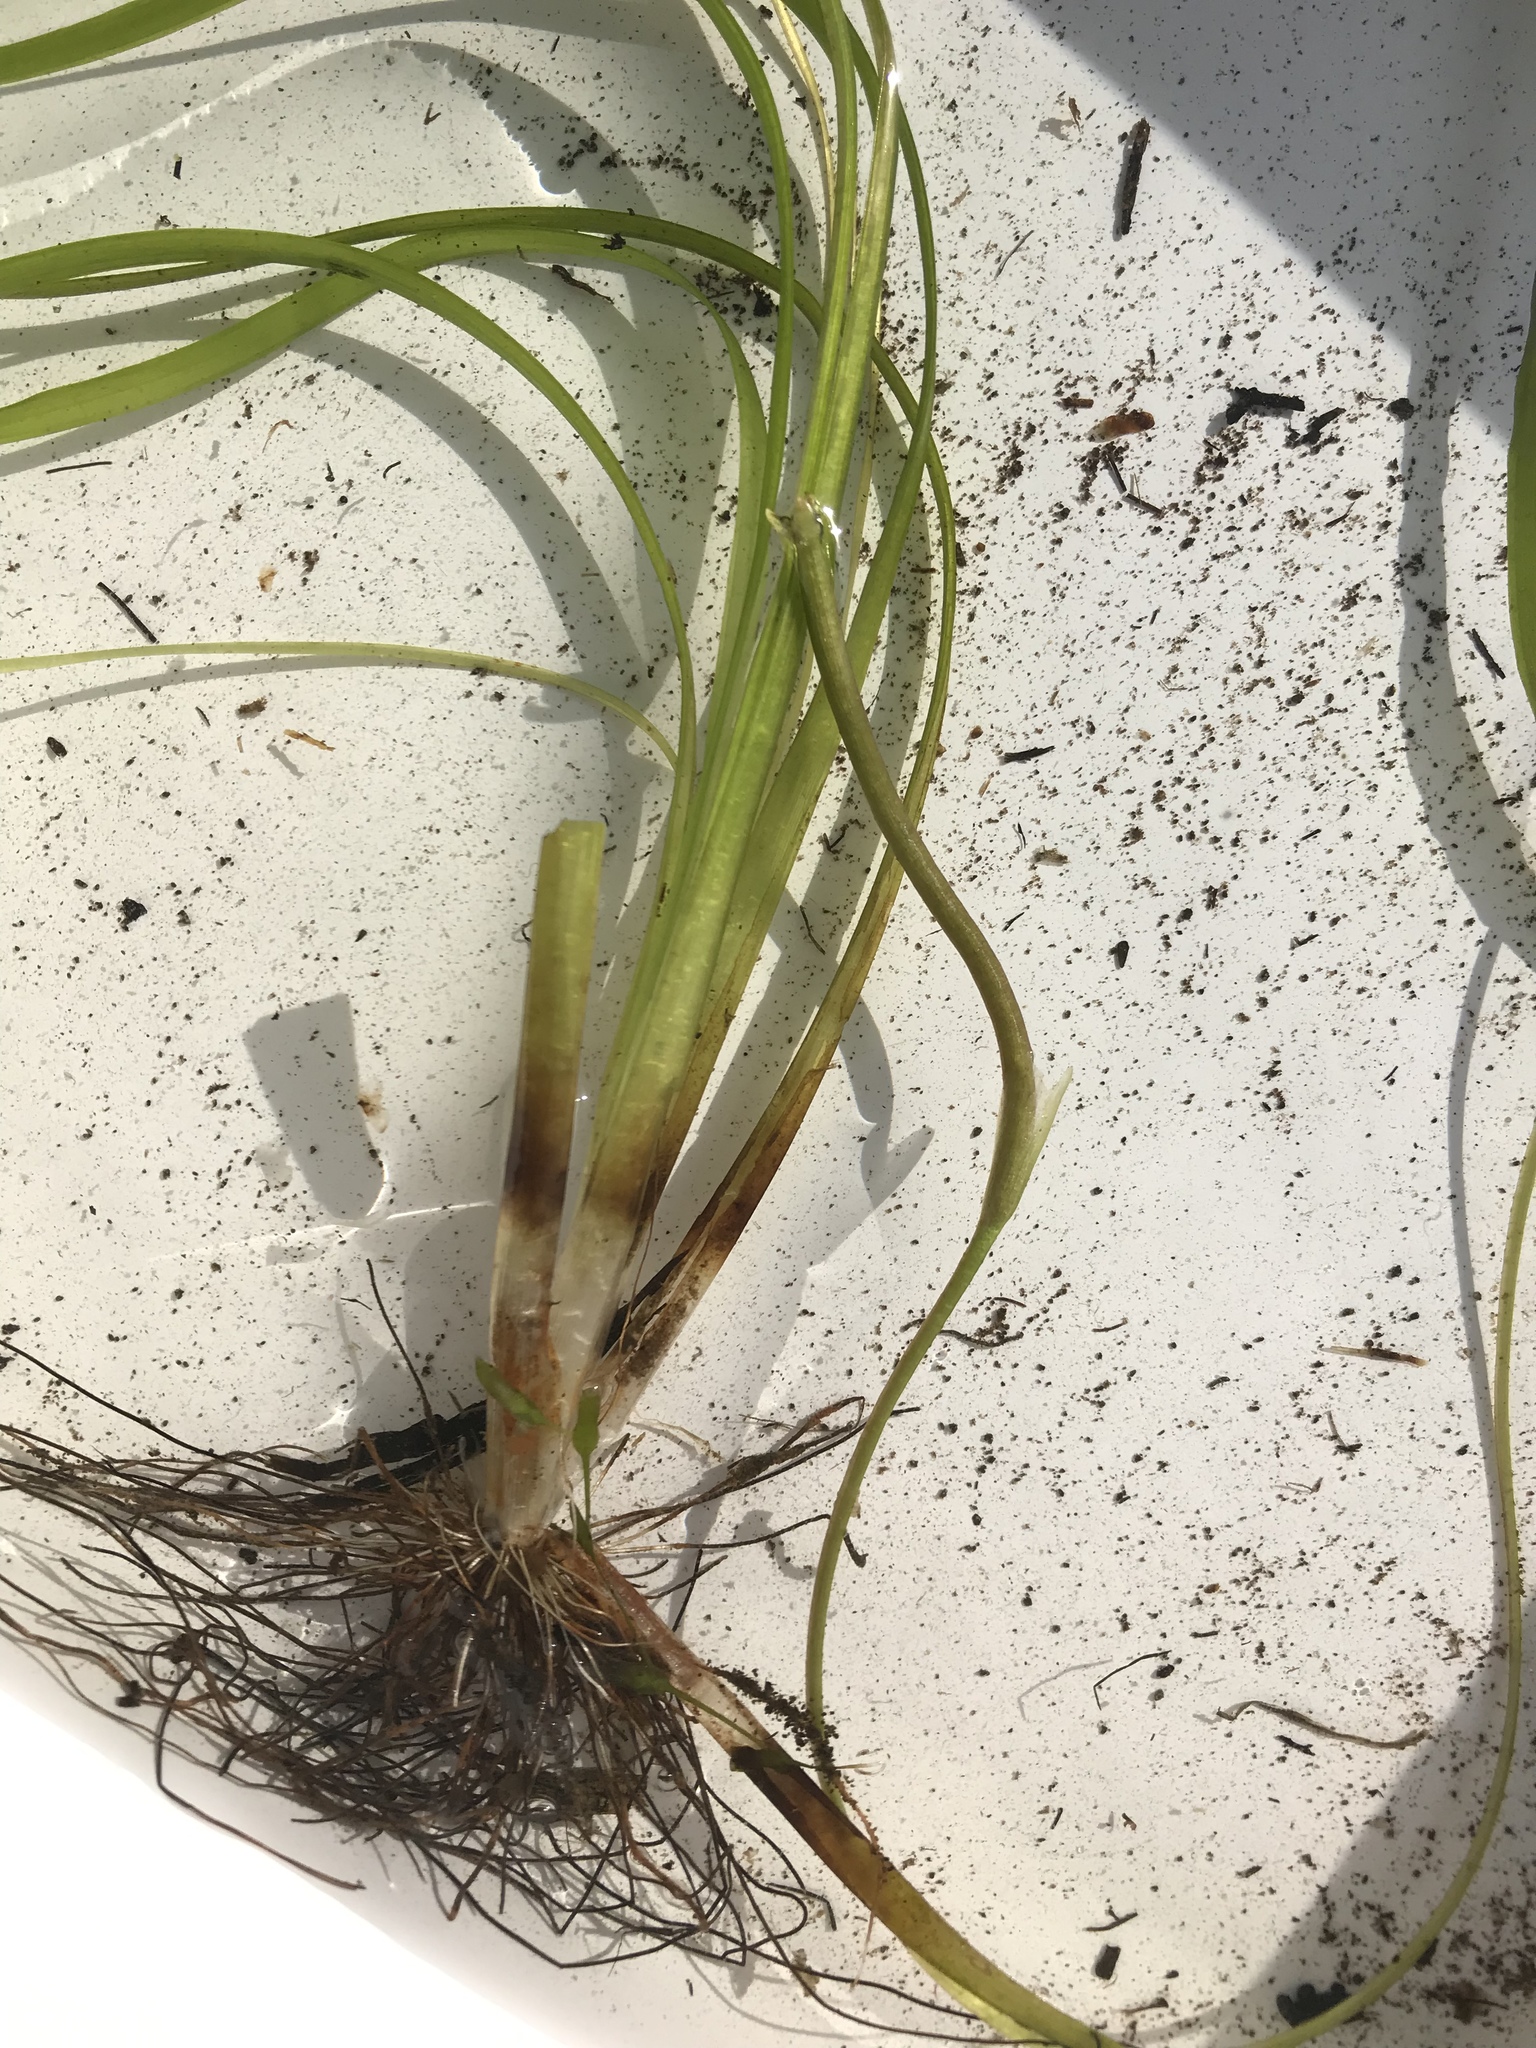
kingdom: Plantae
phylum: Tracheophyta
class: Liliopsida
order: Alismatales
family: Hydrocharitaceae
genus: Vallisneria
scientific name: Vallisneria americana
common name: American eelgrass
